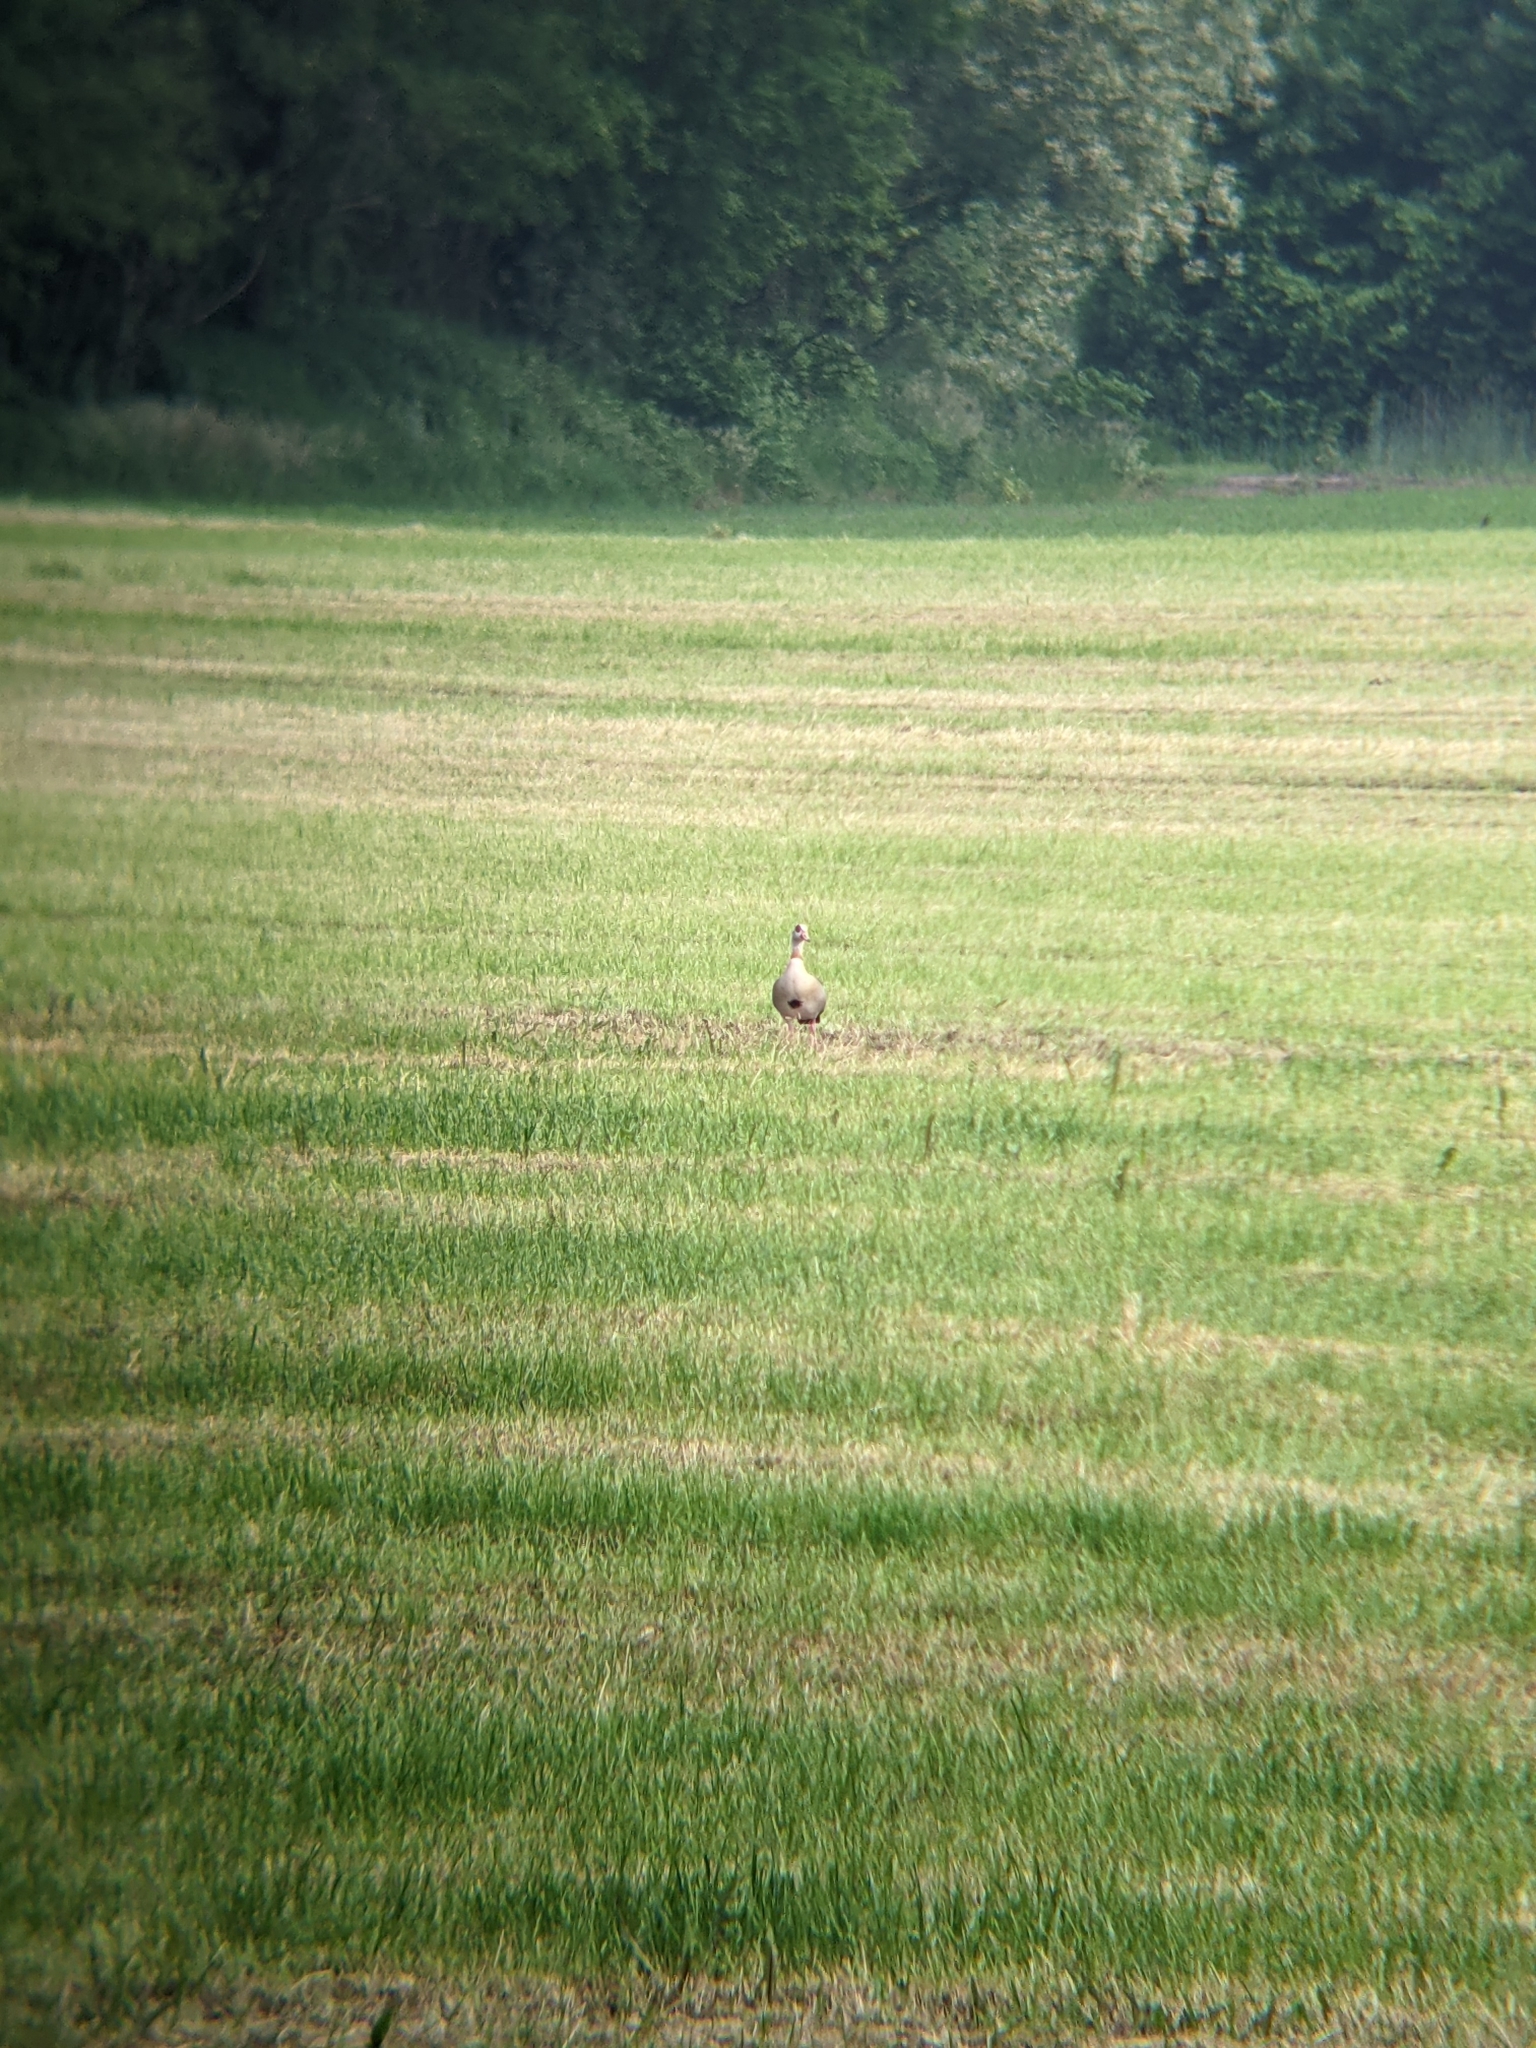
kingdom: Animalia
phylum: Chordata
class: Aves
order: Anseriformes
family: Anatidae
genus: Alopochen
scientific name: Alopochen aegyptiaca
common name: Egyptian goose
